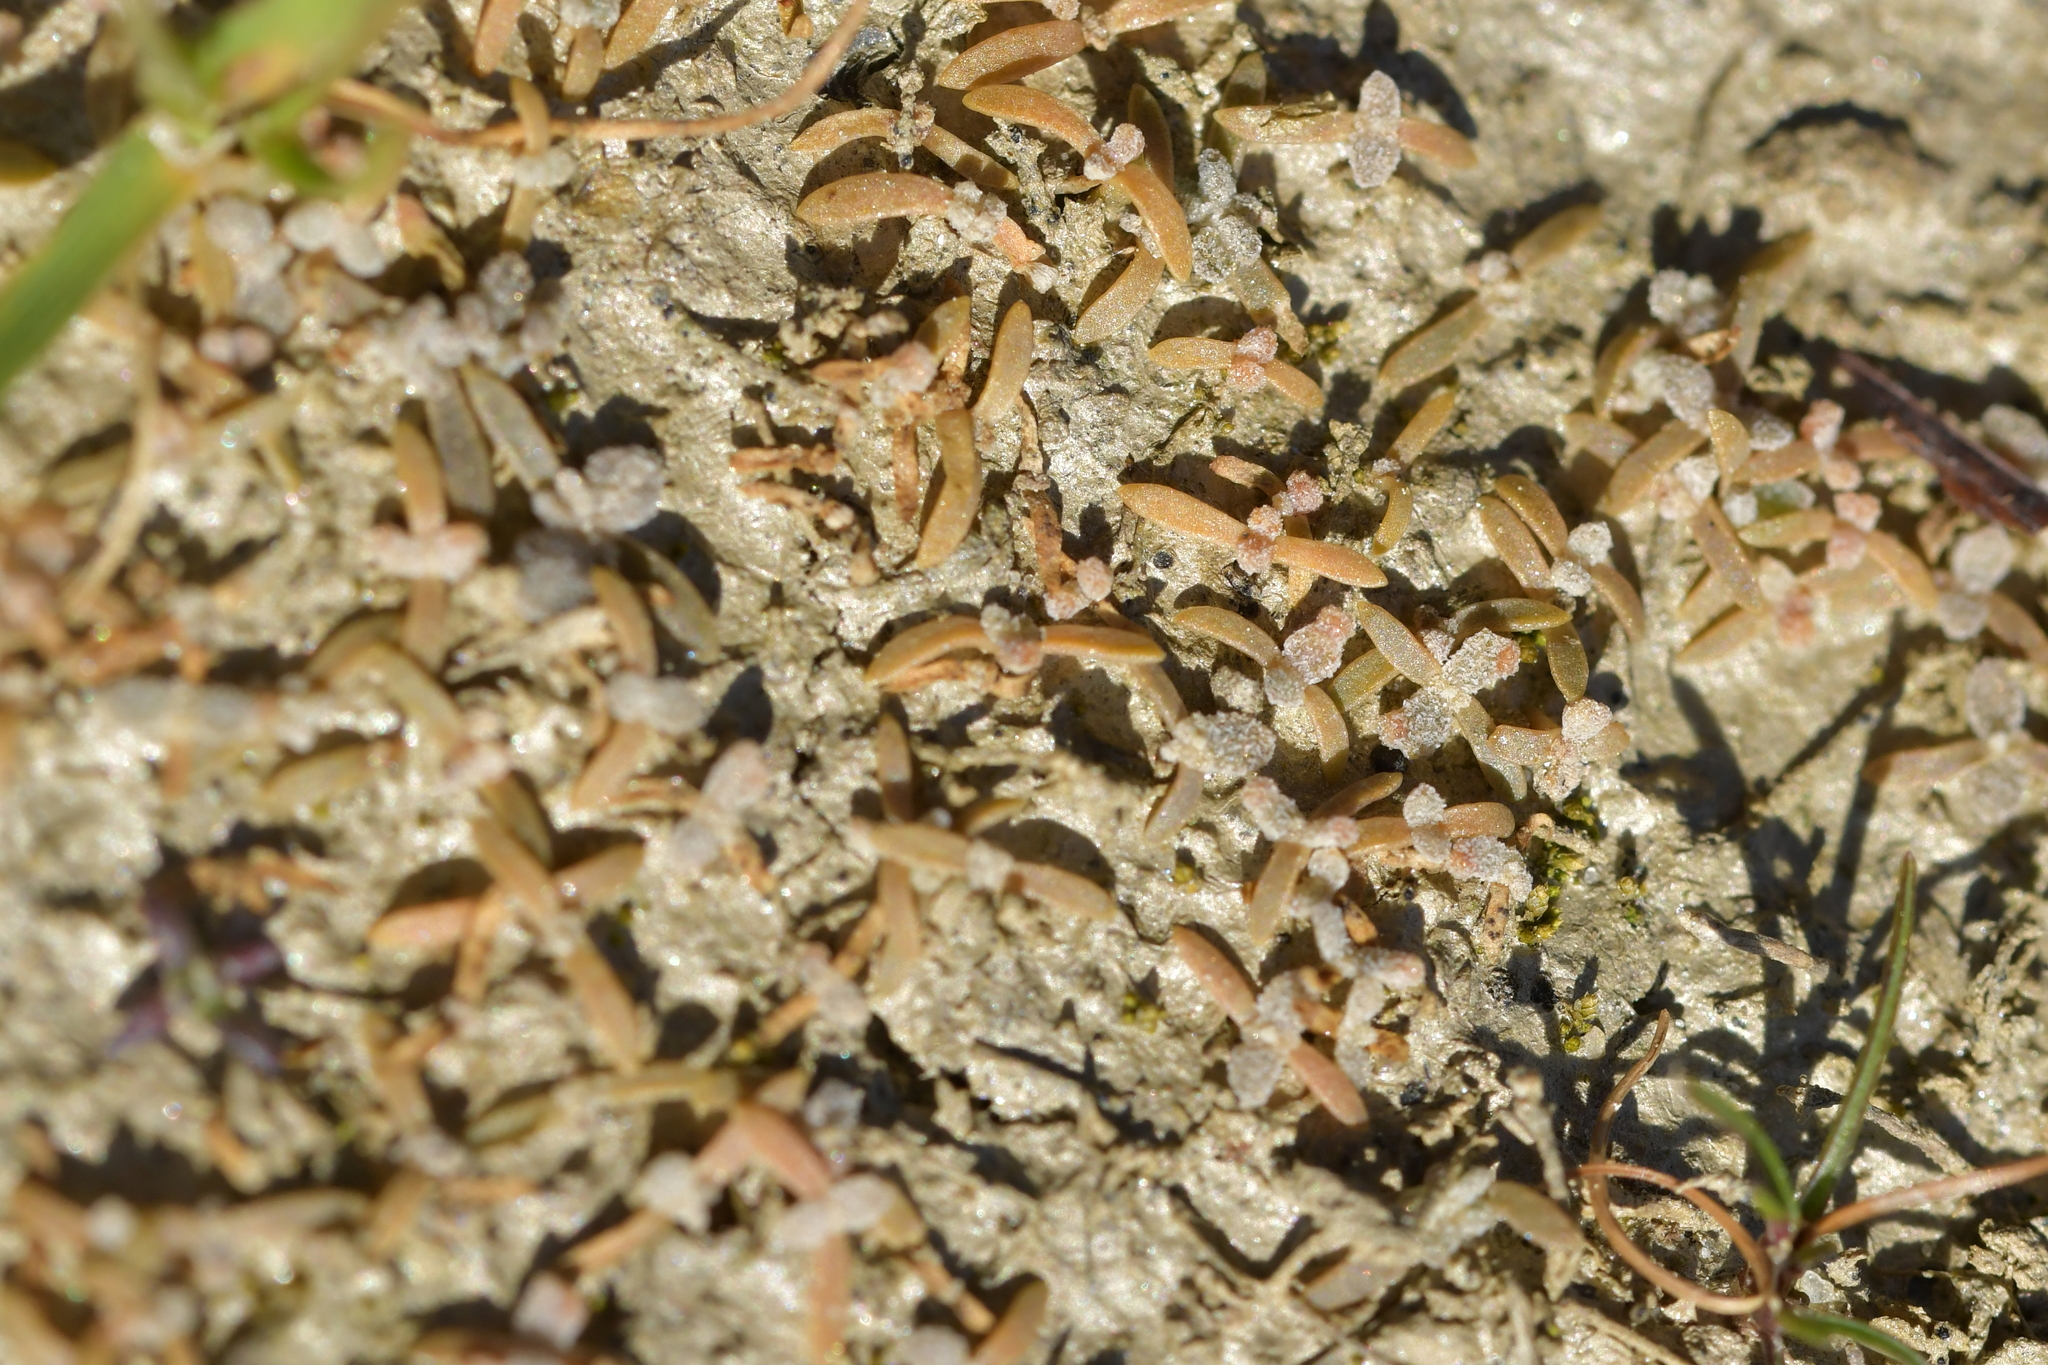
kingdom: Plantae
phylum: Tracheophyta
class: Magnoliopsida
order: Caryophyllales
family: Amaranthaceae
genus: Atriplex
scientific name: Atriplex buchananii
